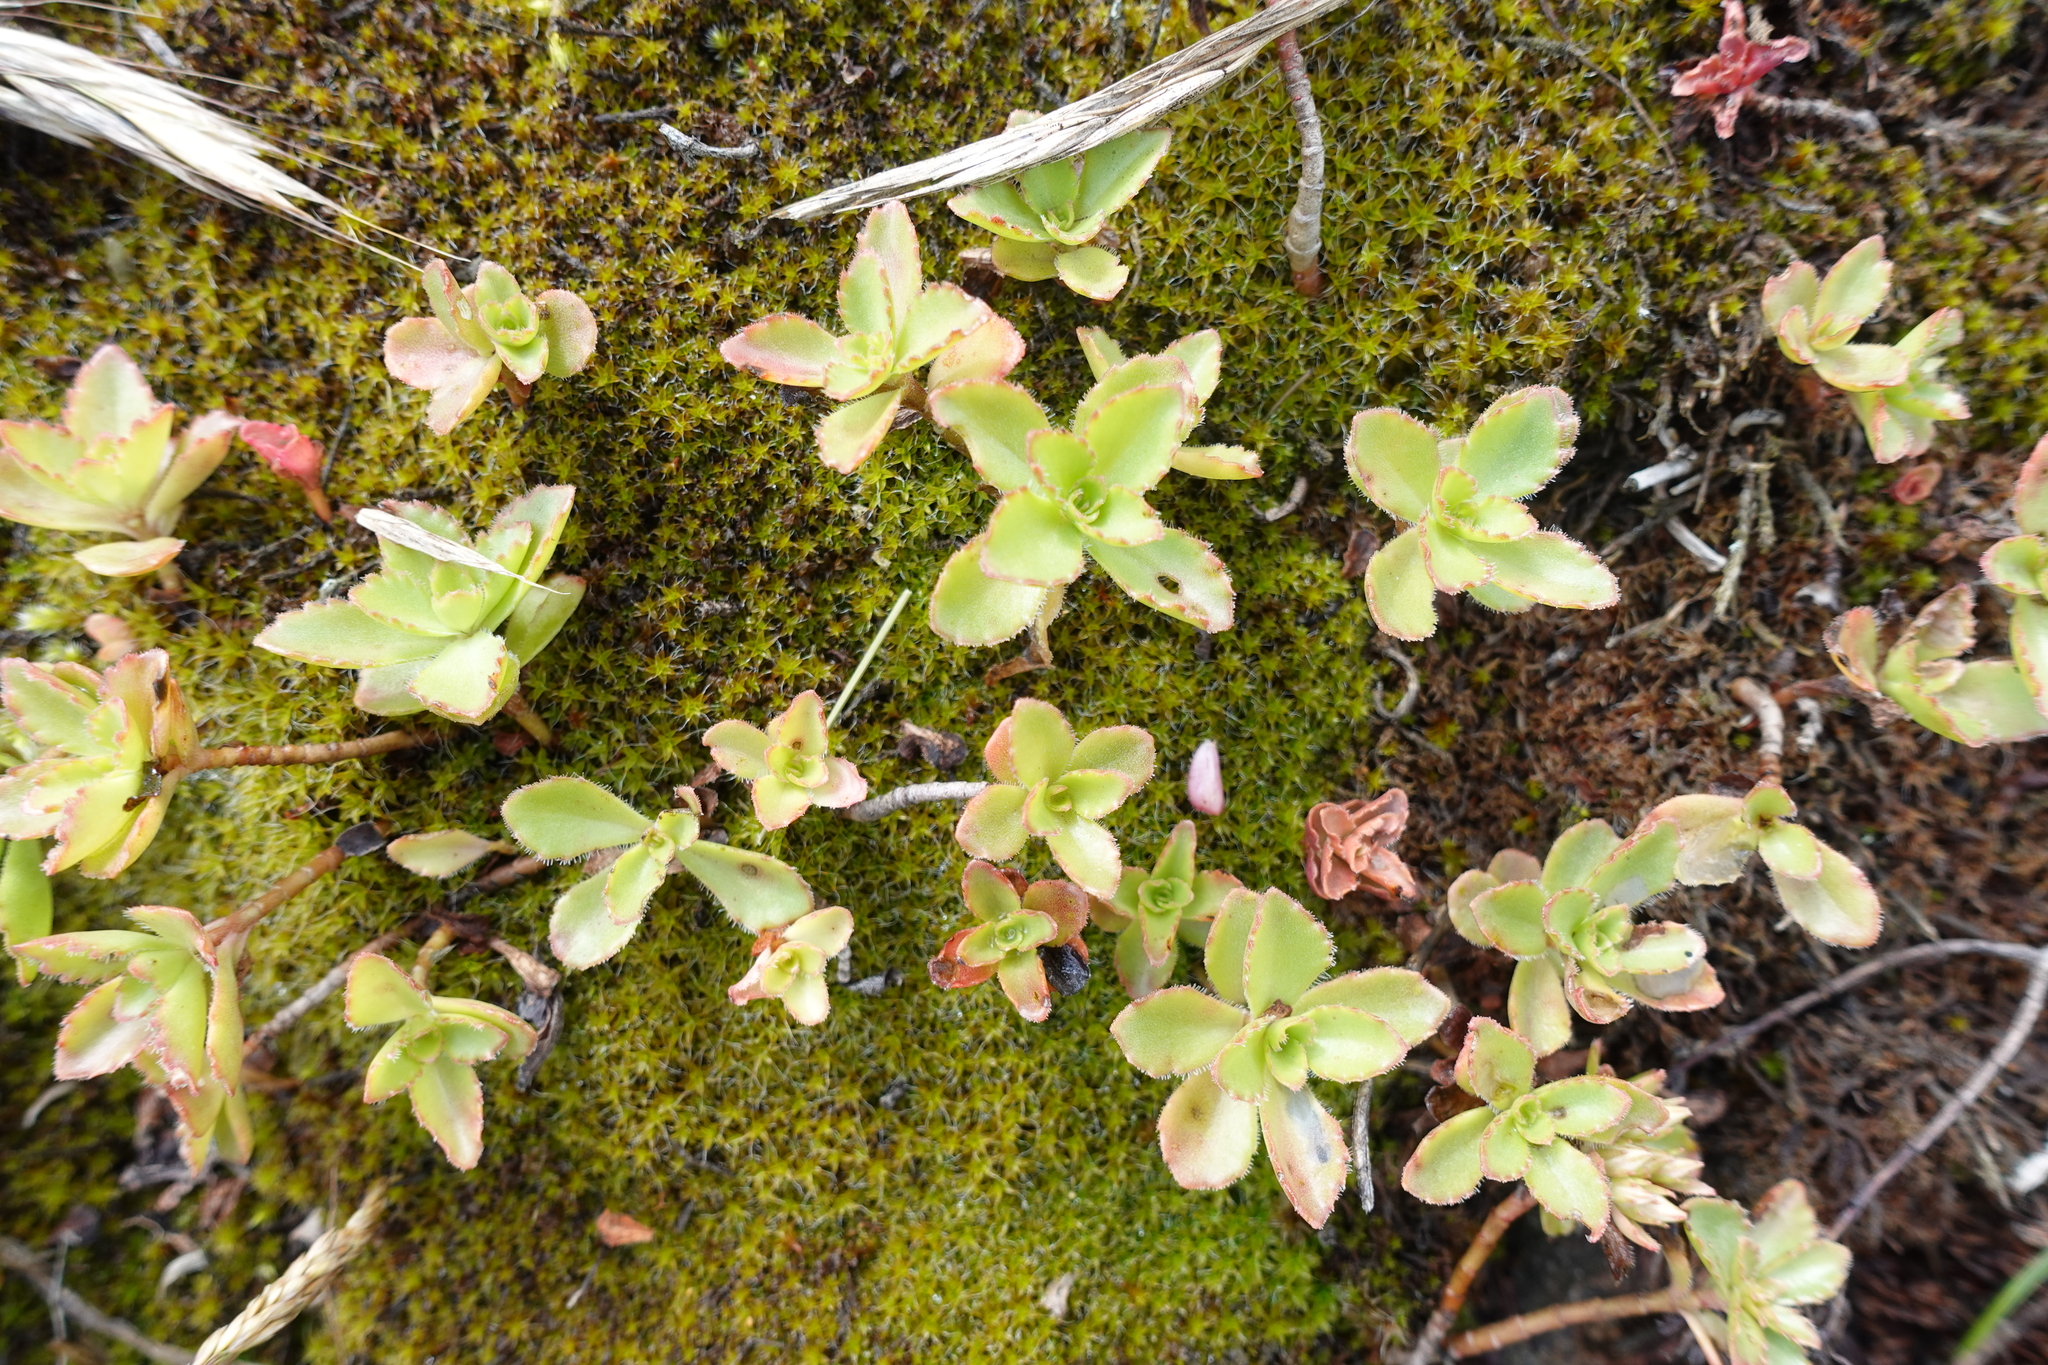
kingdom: Plantae
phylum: Tracheophyta
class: Magnoliopsida
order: Saxifragales
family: Crassulaceae
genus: Phedimus
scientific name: Phedimus spurius
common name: Caucasian stonecrop
